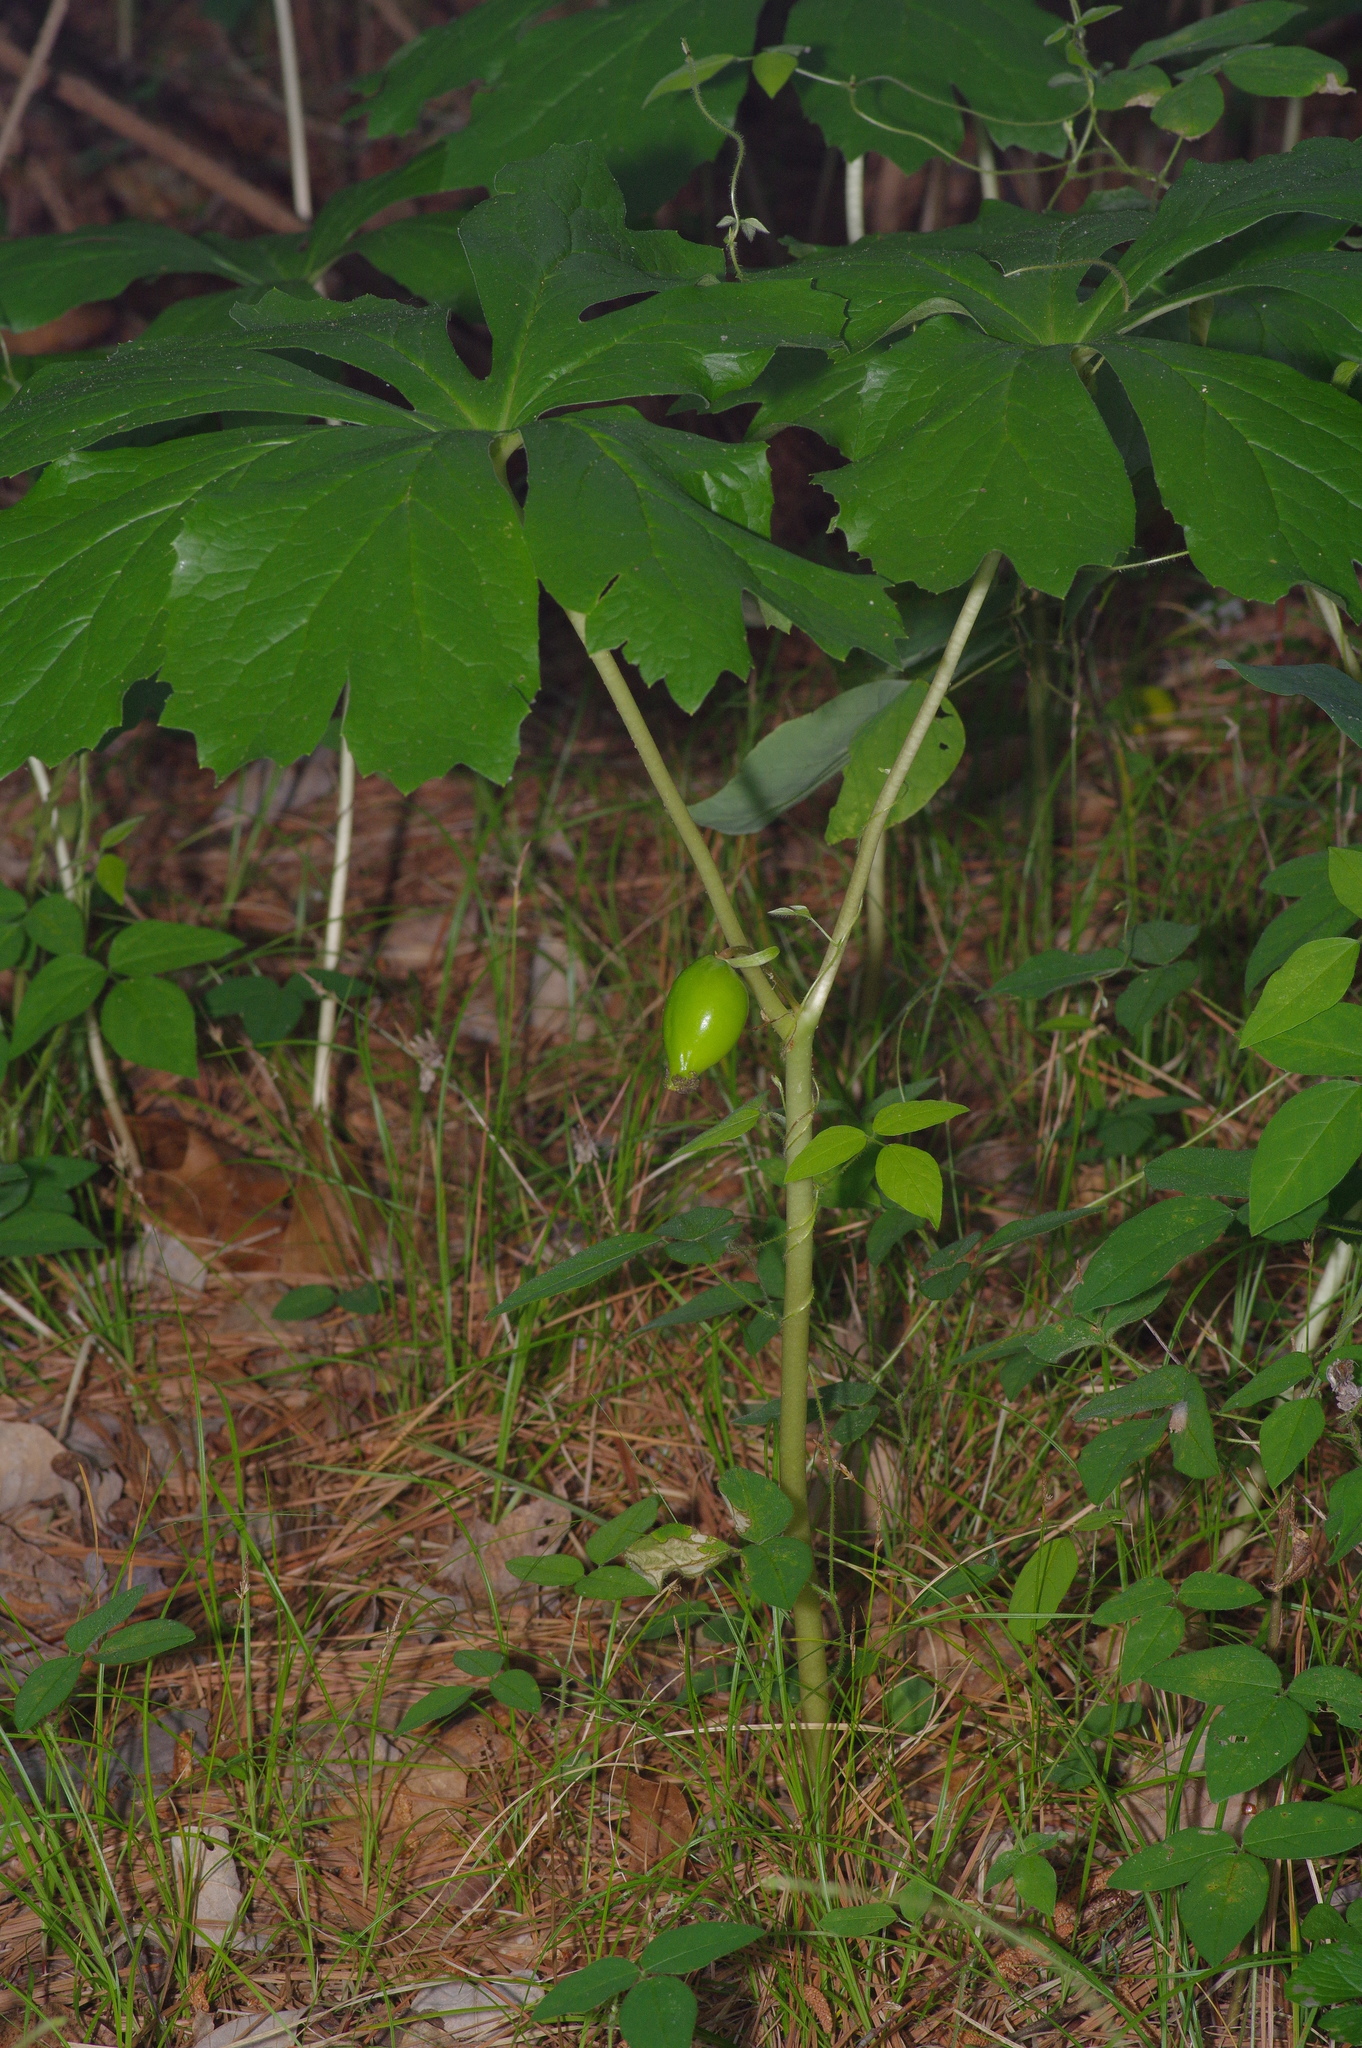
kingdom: Plantae
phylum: Tracheophyta
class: Magnoliopsida
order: Ranunculales
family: Berberidaceae
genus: Podophyllum
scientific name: Podophyllum peltatum
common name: Wild mandrake
